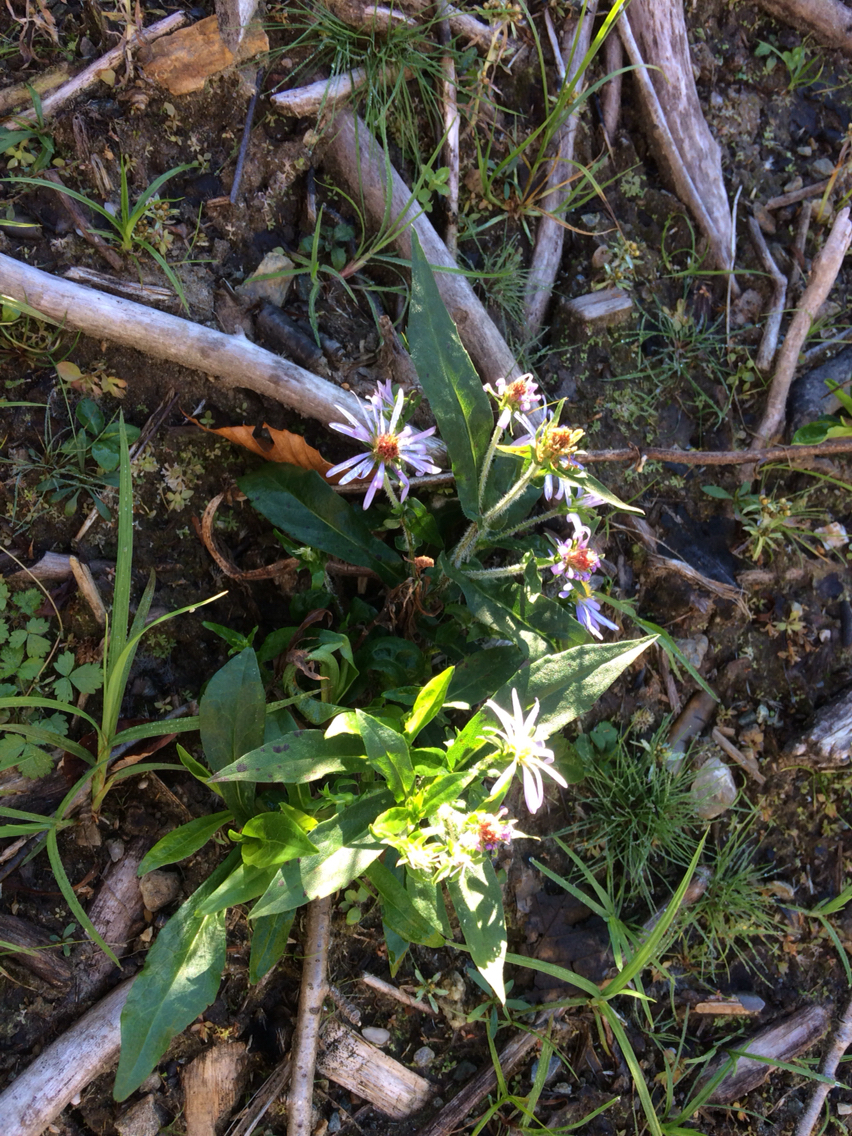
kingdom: Plantae
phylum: Tracheophyta
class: Magnoliopsida
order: Asterales
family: Asteraceae
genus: Symphyotrichum
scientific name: Symphyotrichum puniceum
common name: Bog aster
